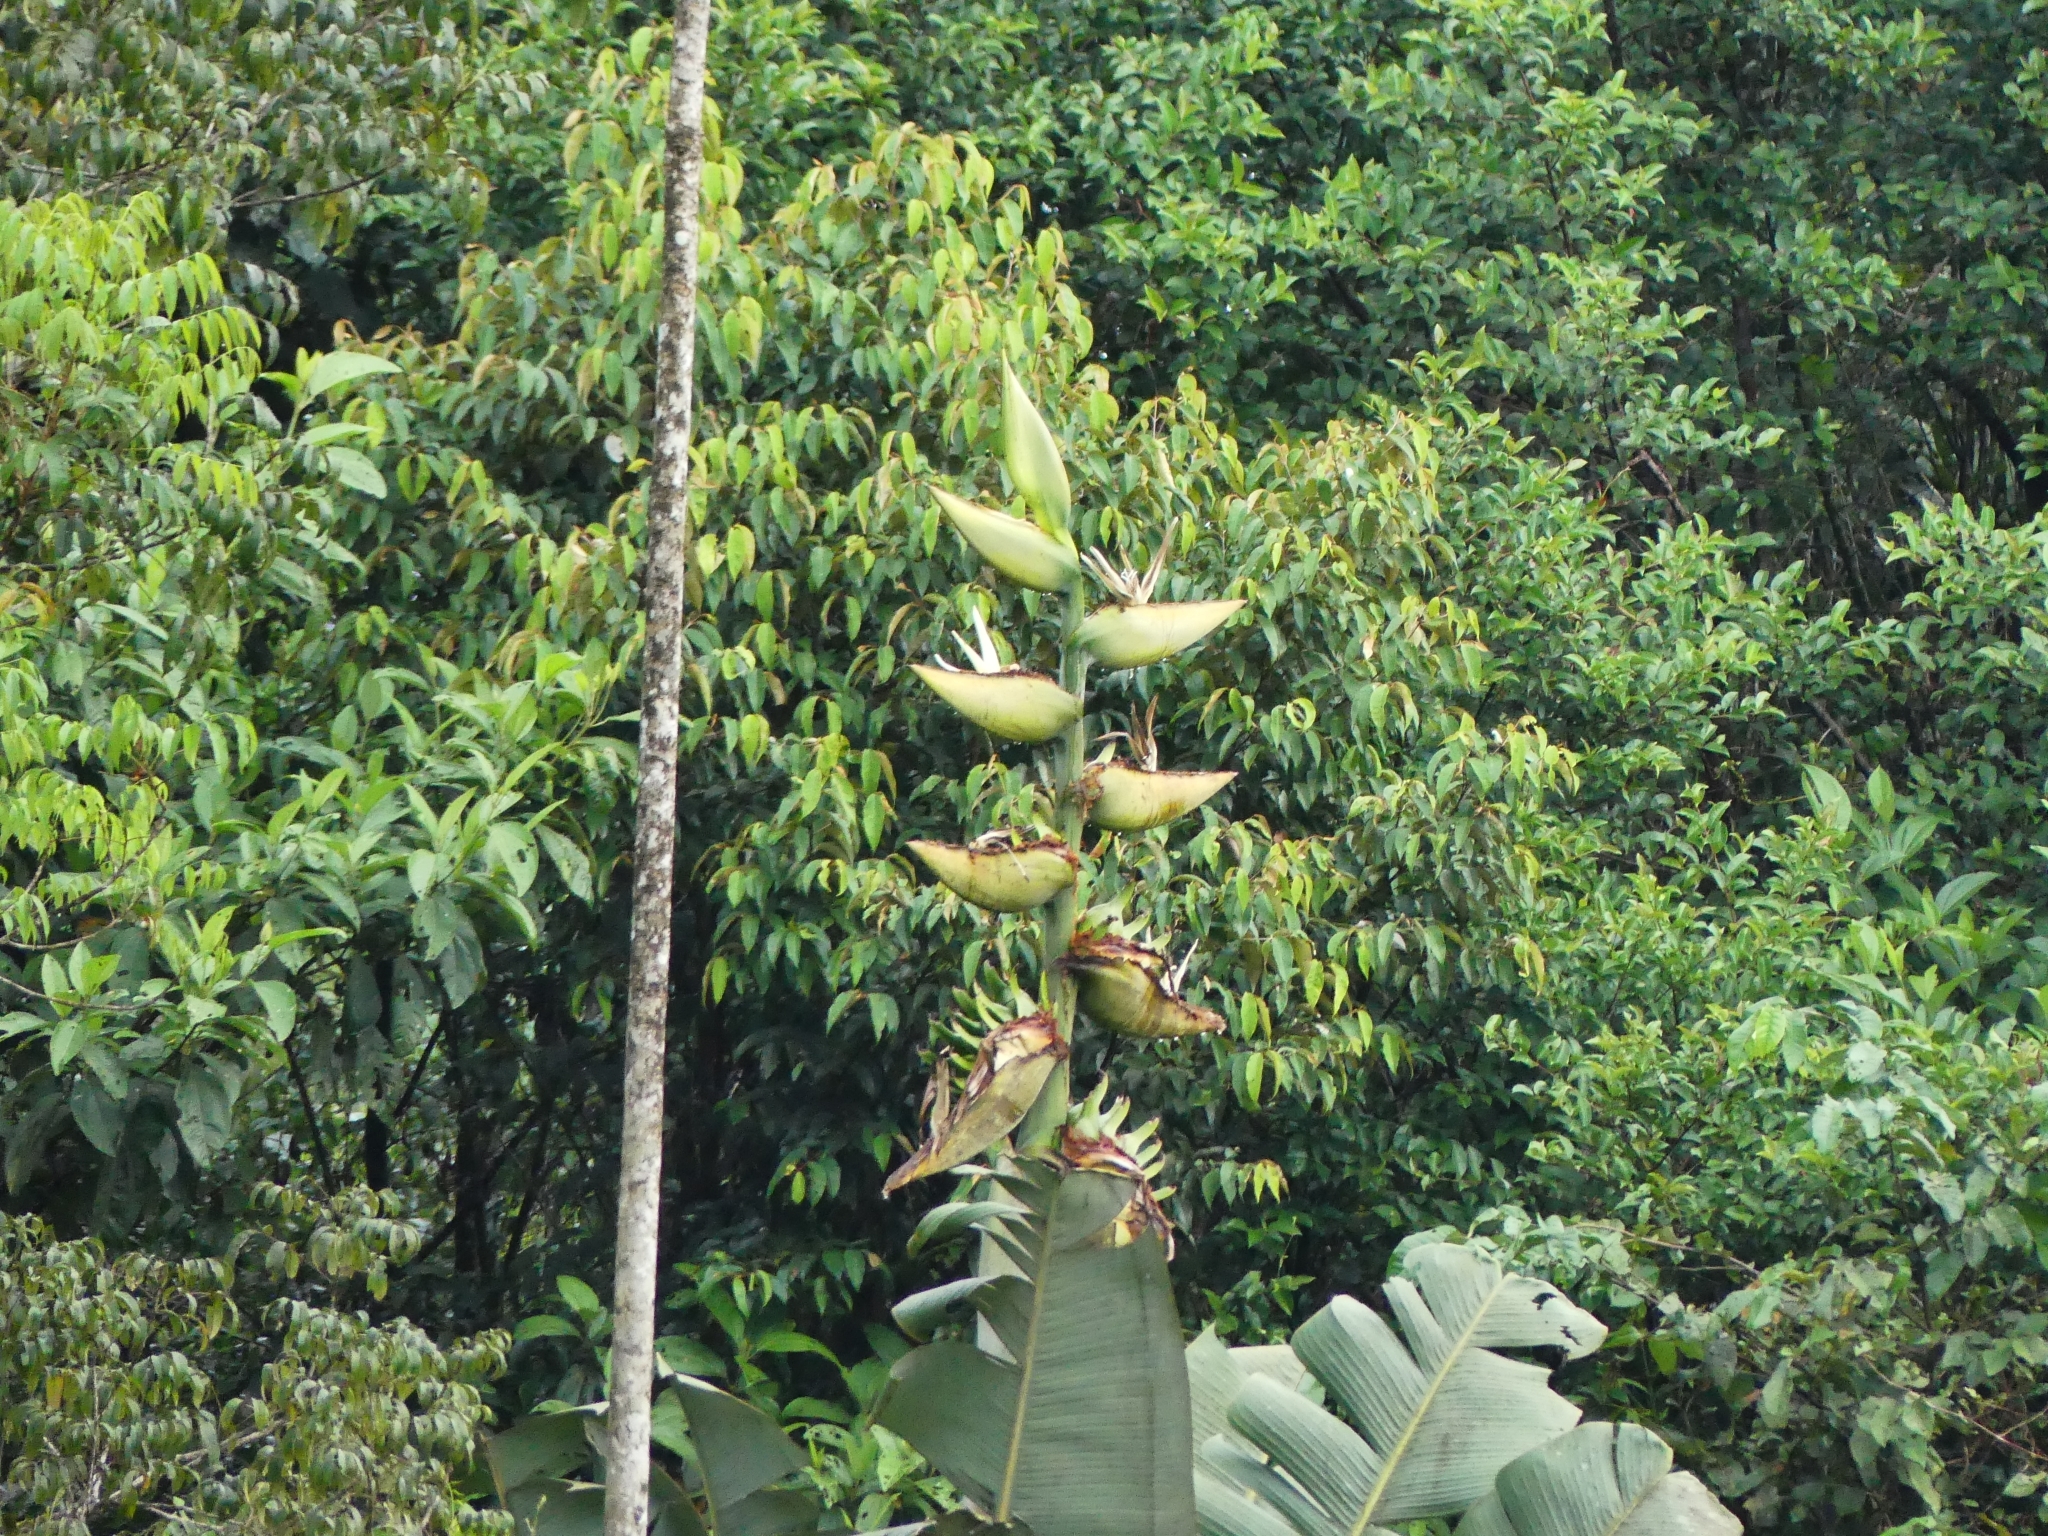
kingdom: Plantae
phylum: Tracheophyta
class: Liliopsida
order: Zingiberales
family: Strelitziaceae
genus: Phenakospermum
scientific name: Phenakospermum guyannense
